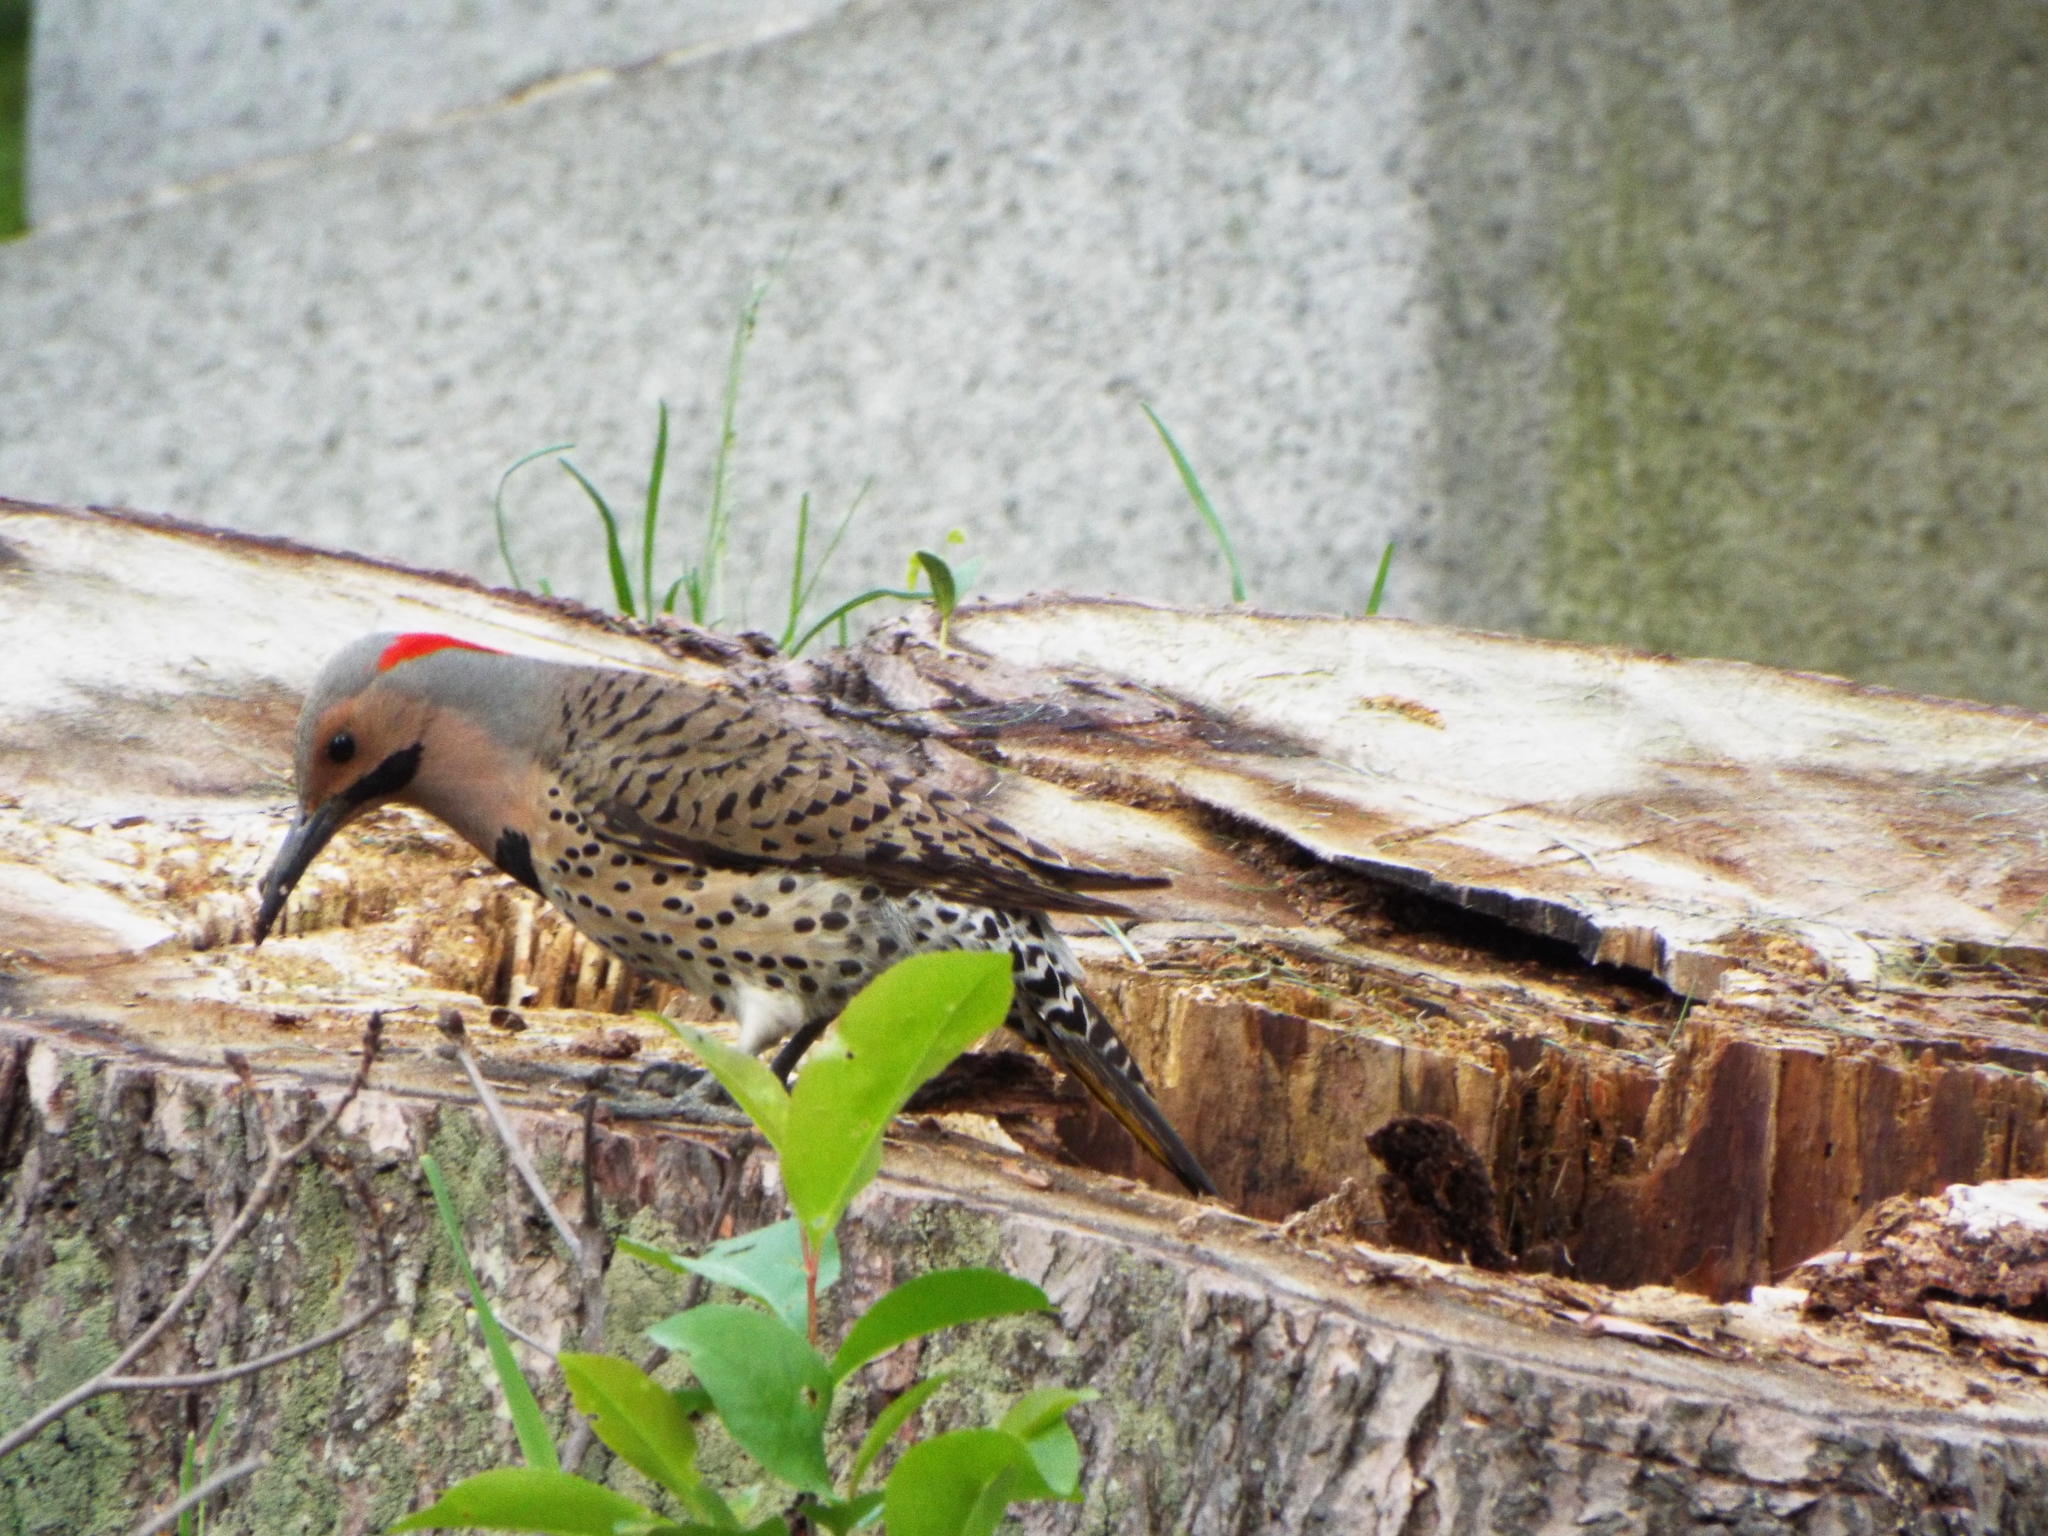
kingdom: Animalia
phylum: Chordata
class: Aves
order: Piciformes
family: Picidae
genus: Colaptes
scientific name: Colaptes auratus
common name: Northern flicker
